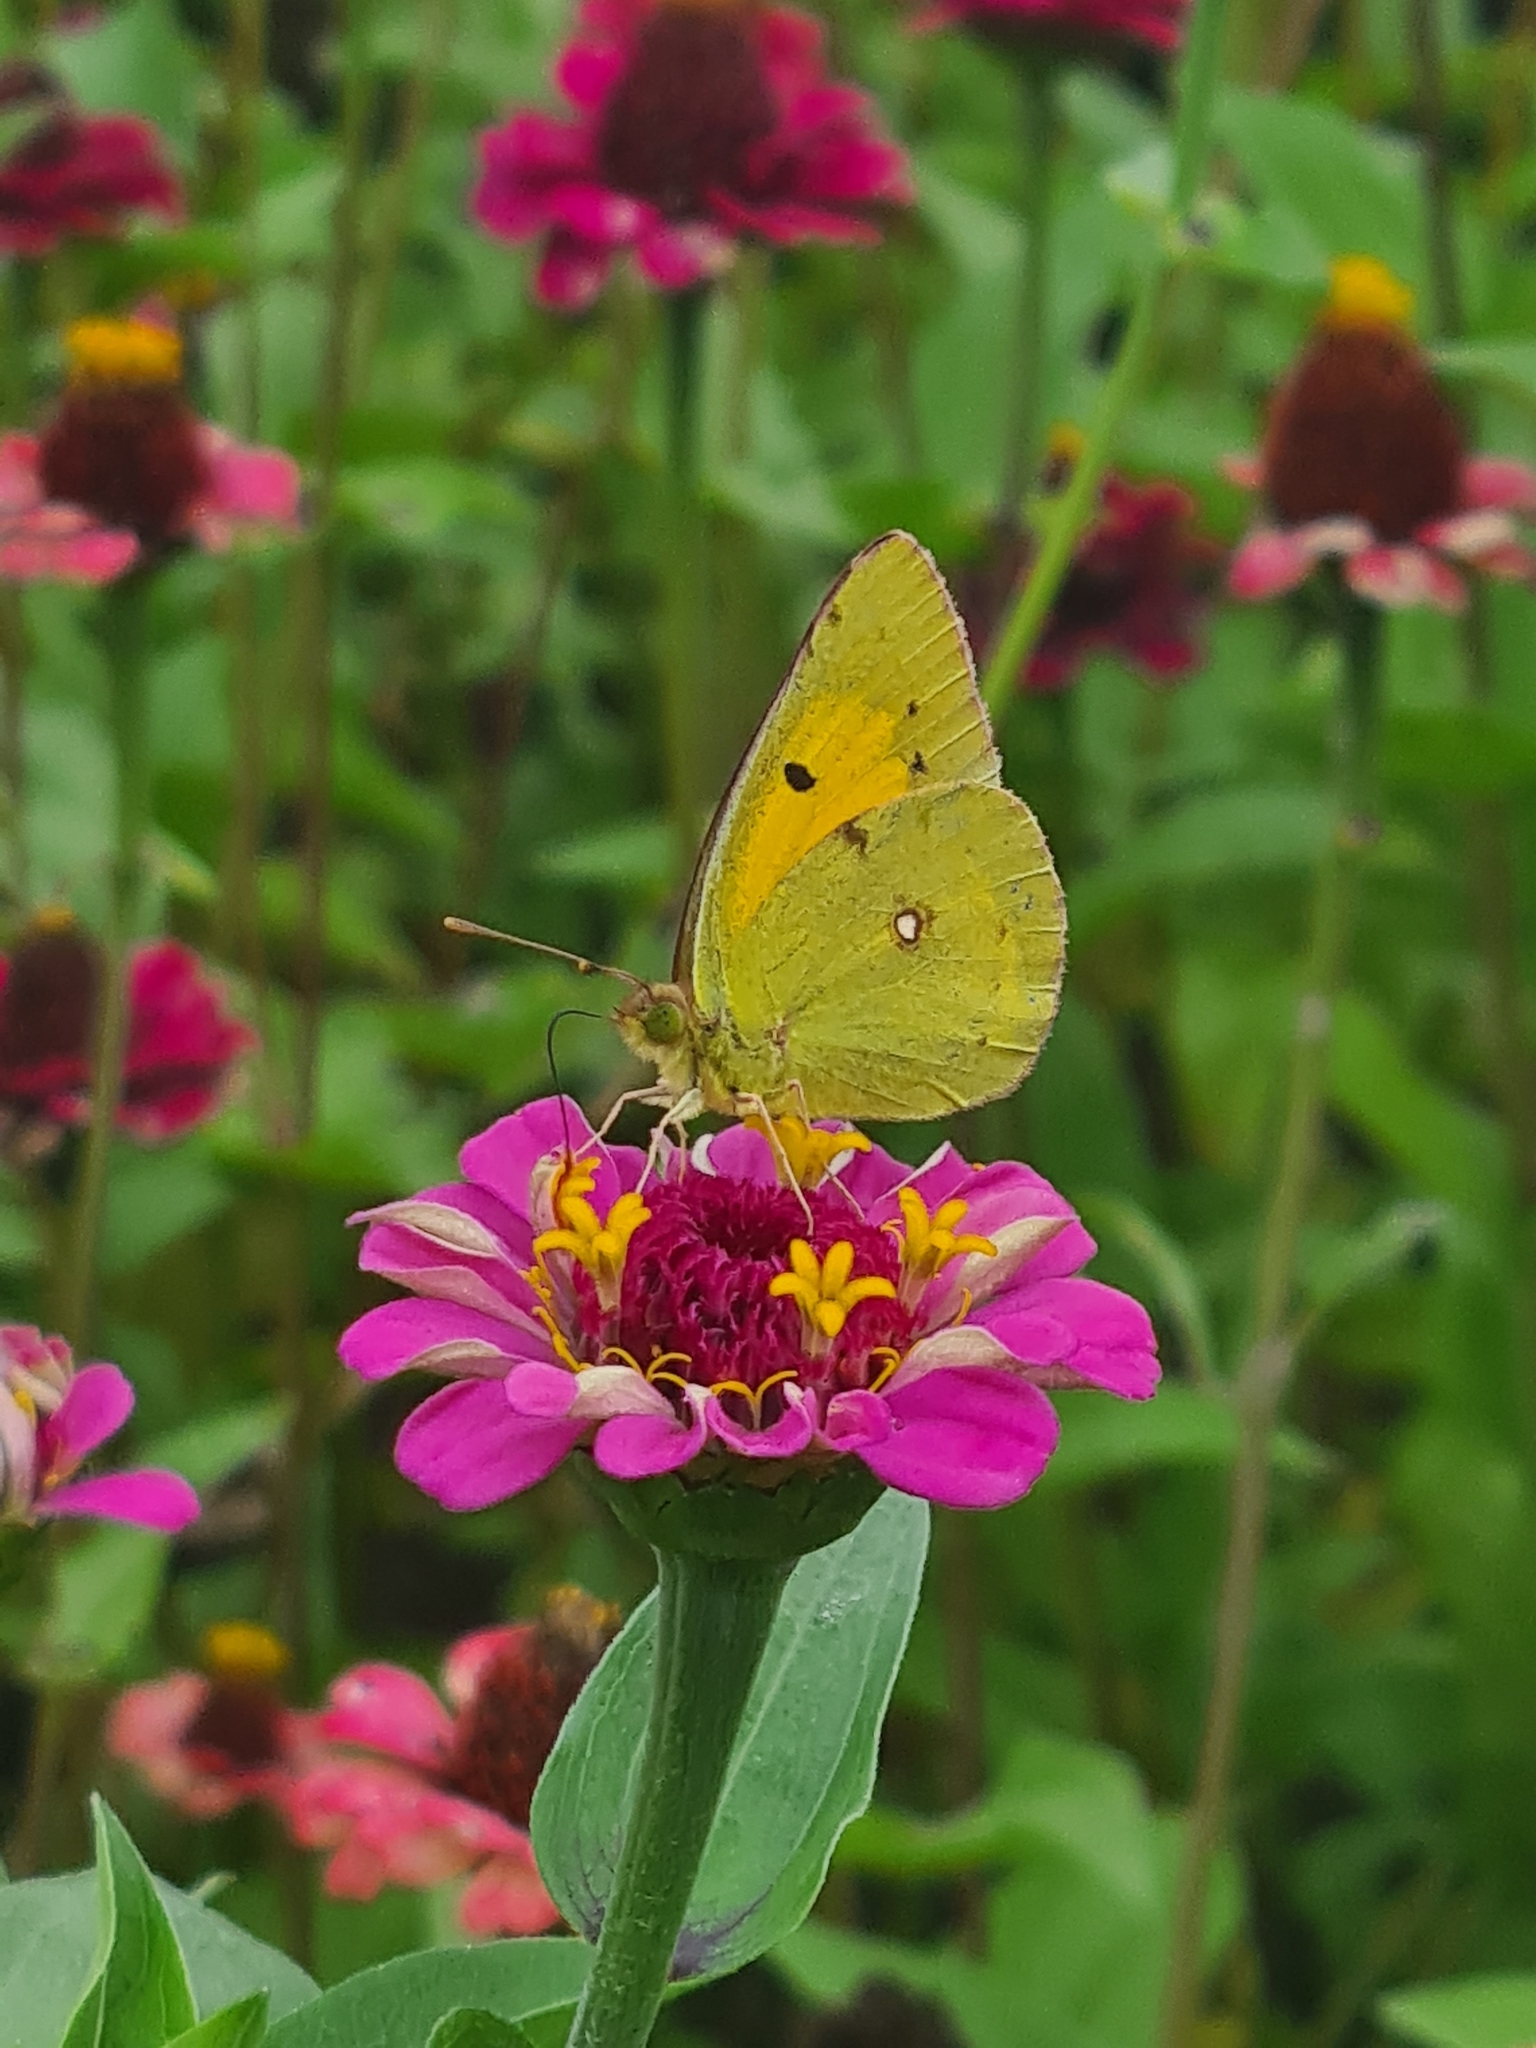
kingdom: Animalia
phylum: Arthropoda
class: Insecta
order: Lepidoptera
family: Pieridae
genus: Colias
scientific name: Colias croceus
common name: Clouded yellow
